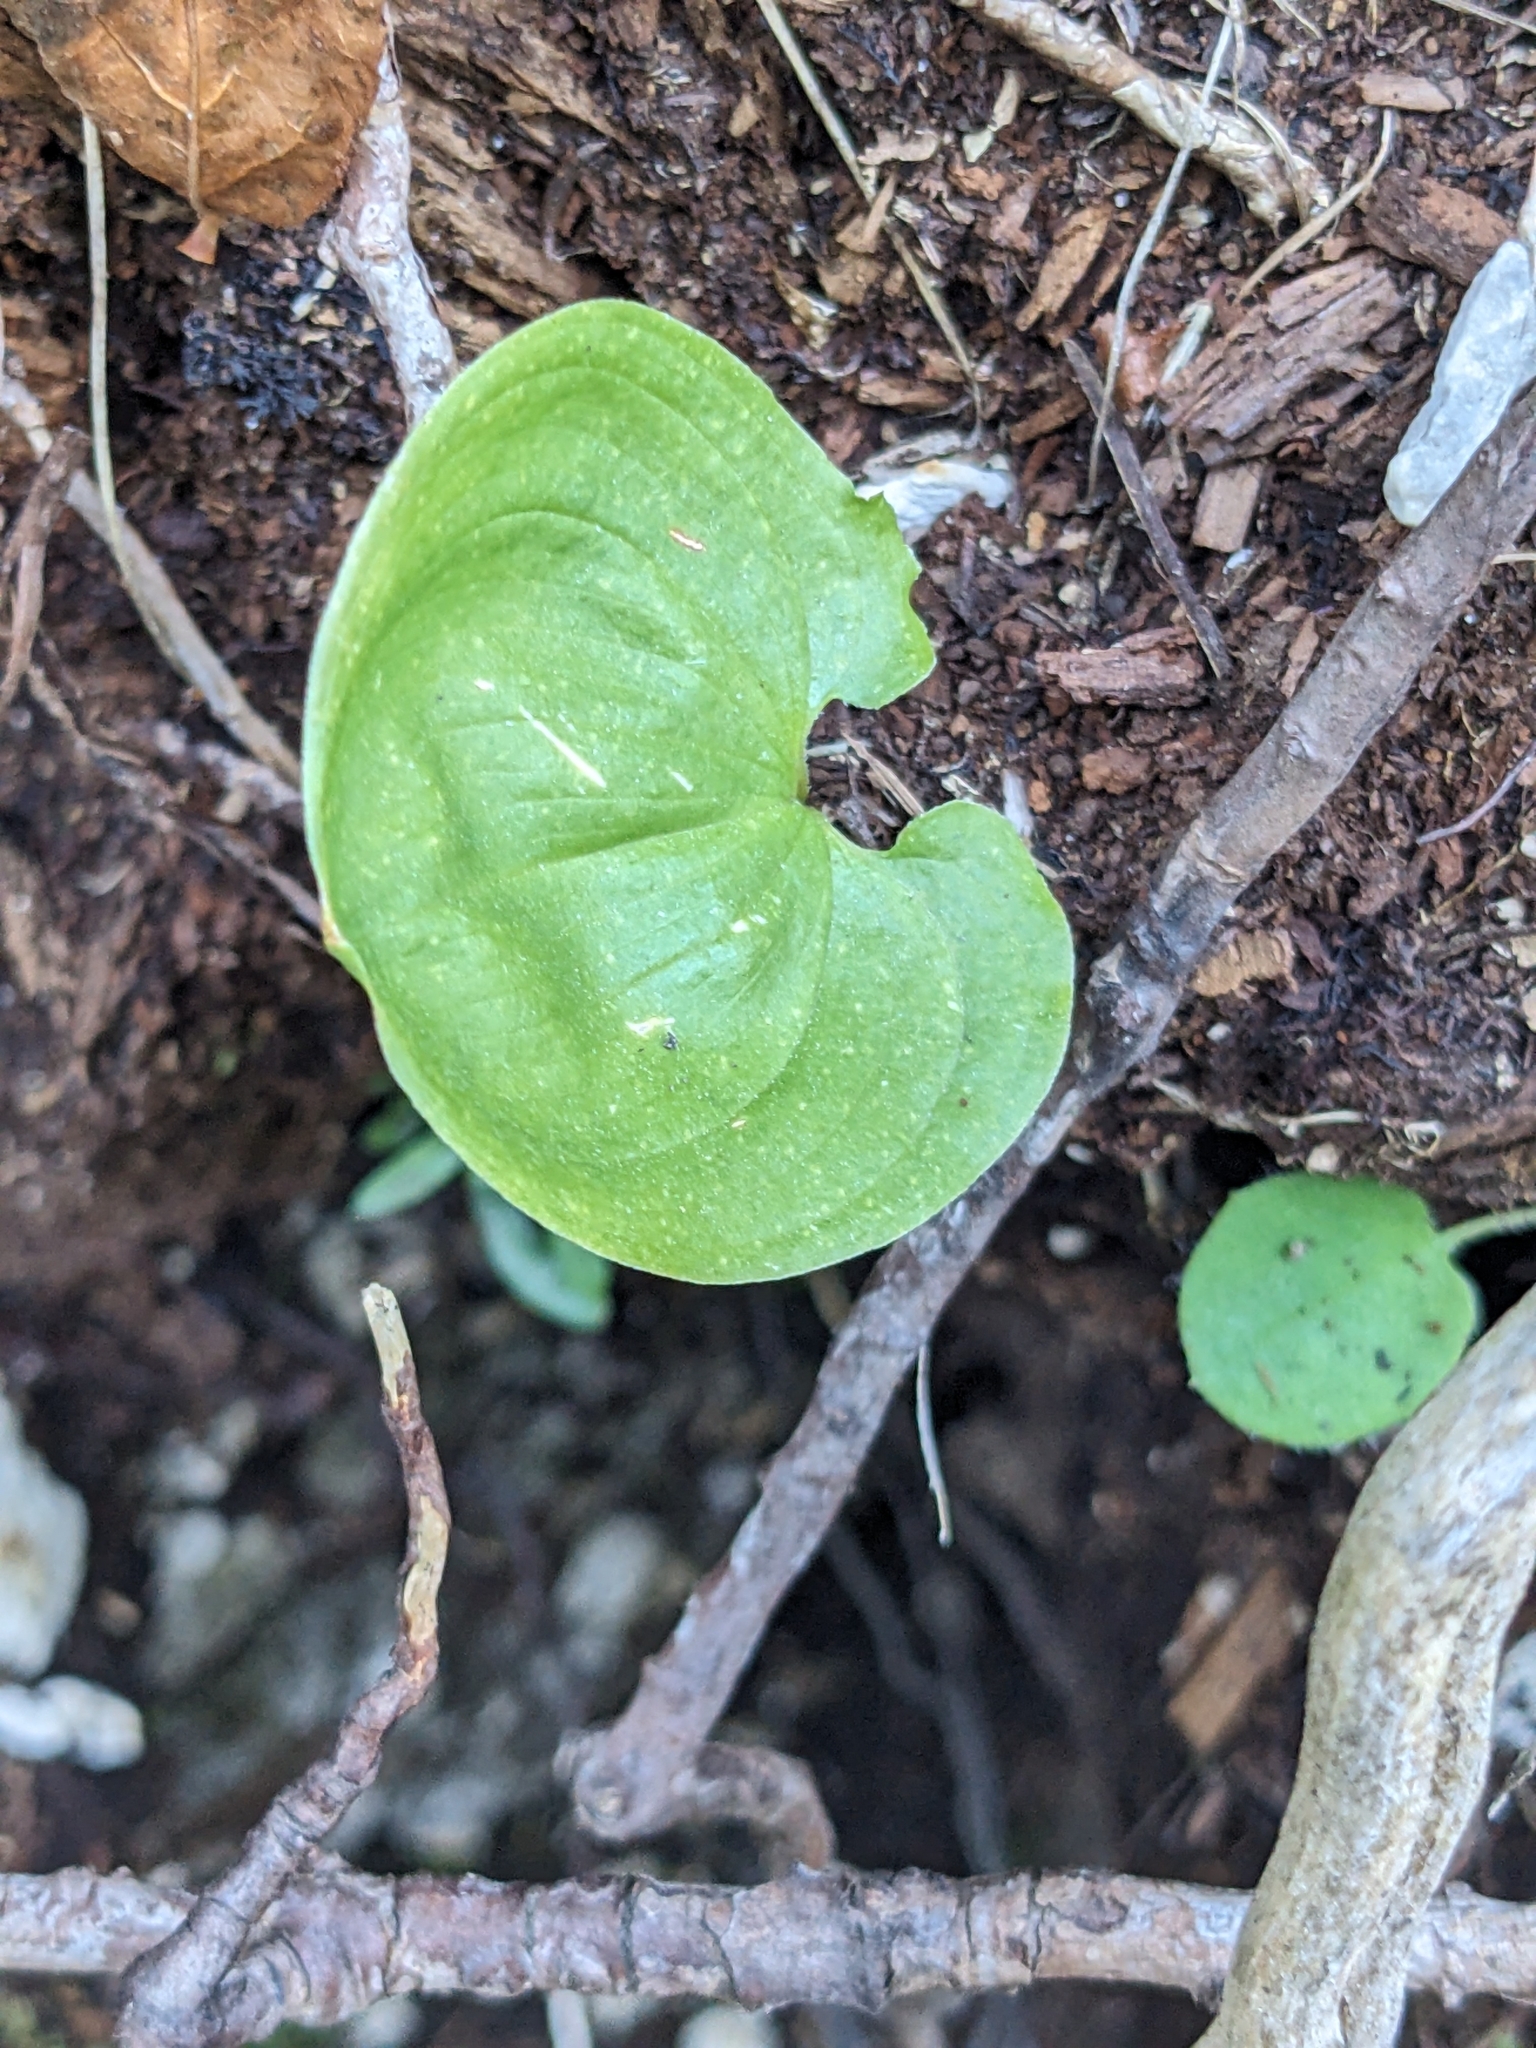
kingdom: Plantae
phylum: Tracheophyta
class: Liliopsida
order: Asparagales
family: Asparagaceae
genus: Maianthemum
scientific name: Maianthemum bifolium
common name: May lily
